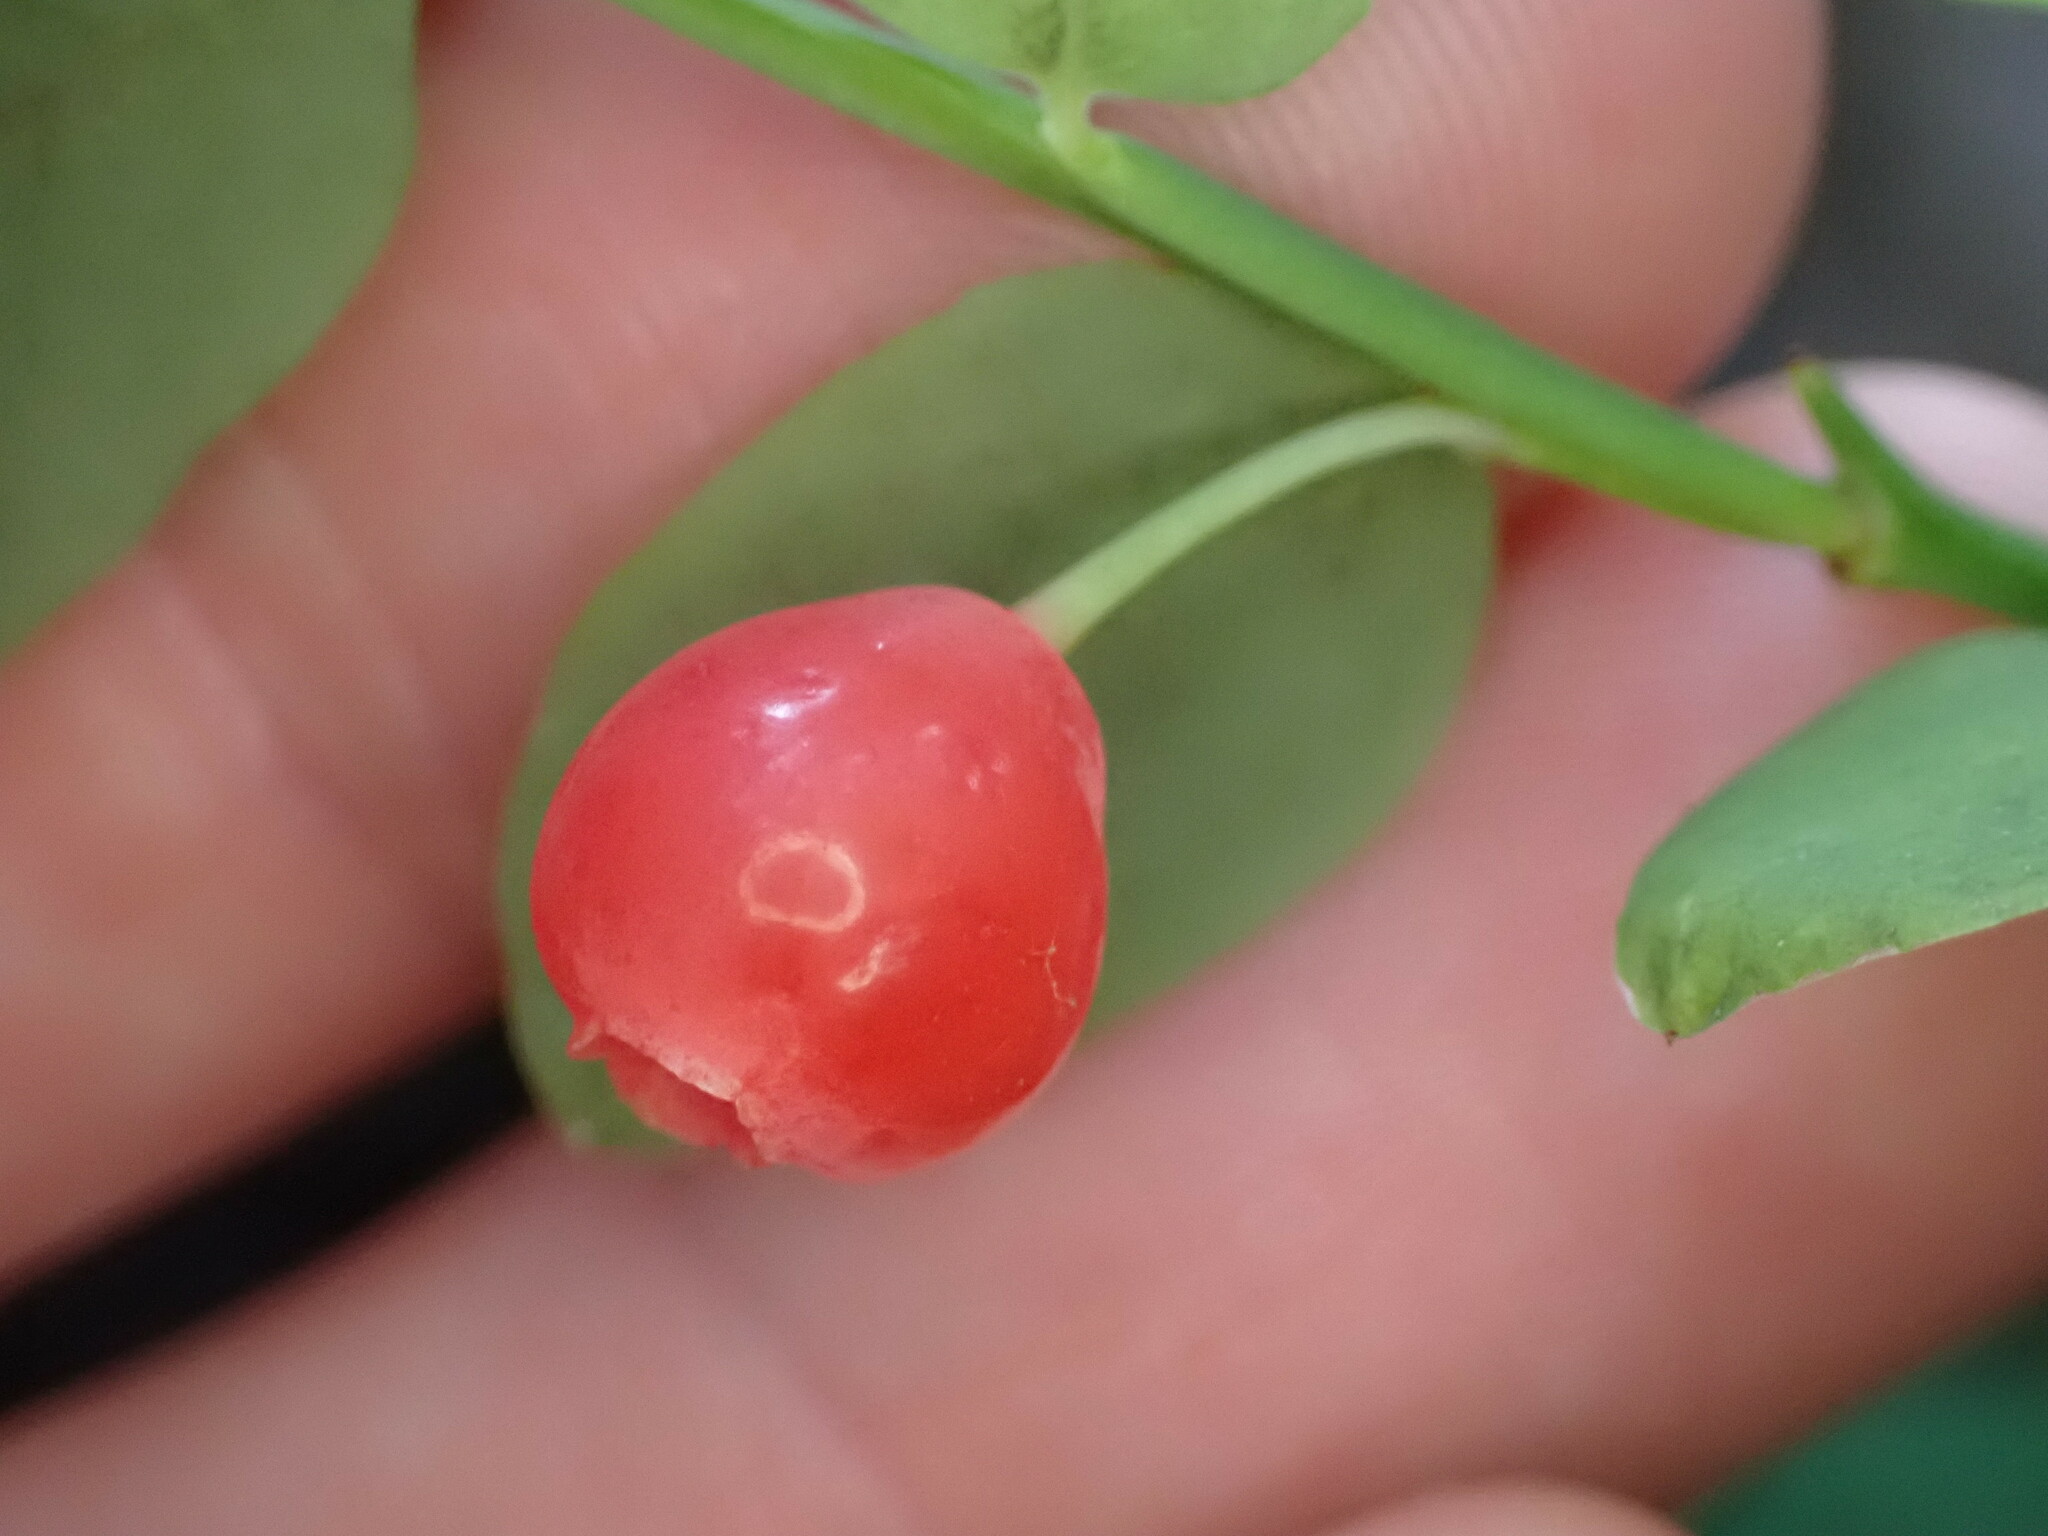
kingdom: Plantae
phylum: Tracheophyta
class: Magnoliopsida
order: Ericales
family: Ericaceae
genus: Vaccinium
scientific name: Vaccinium parvifolium
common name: Red-huckleberry
